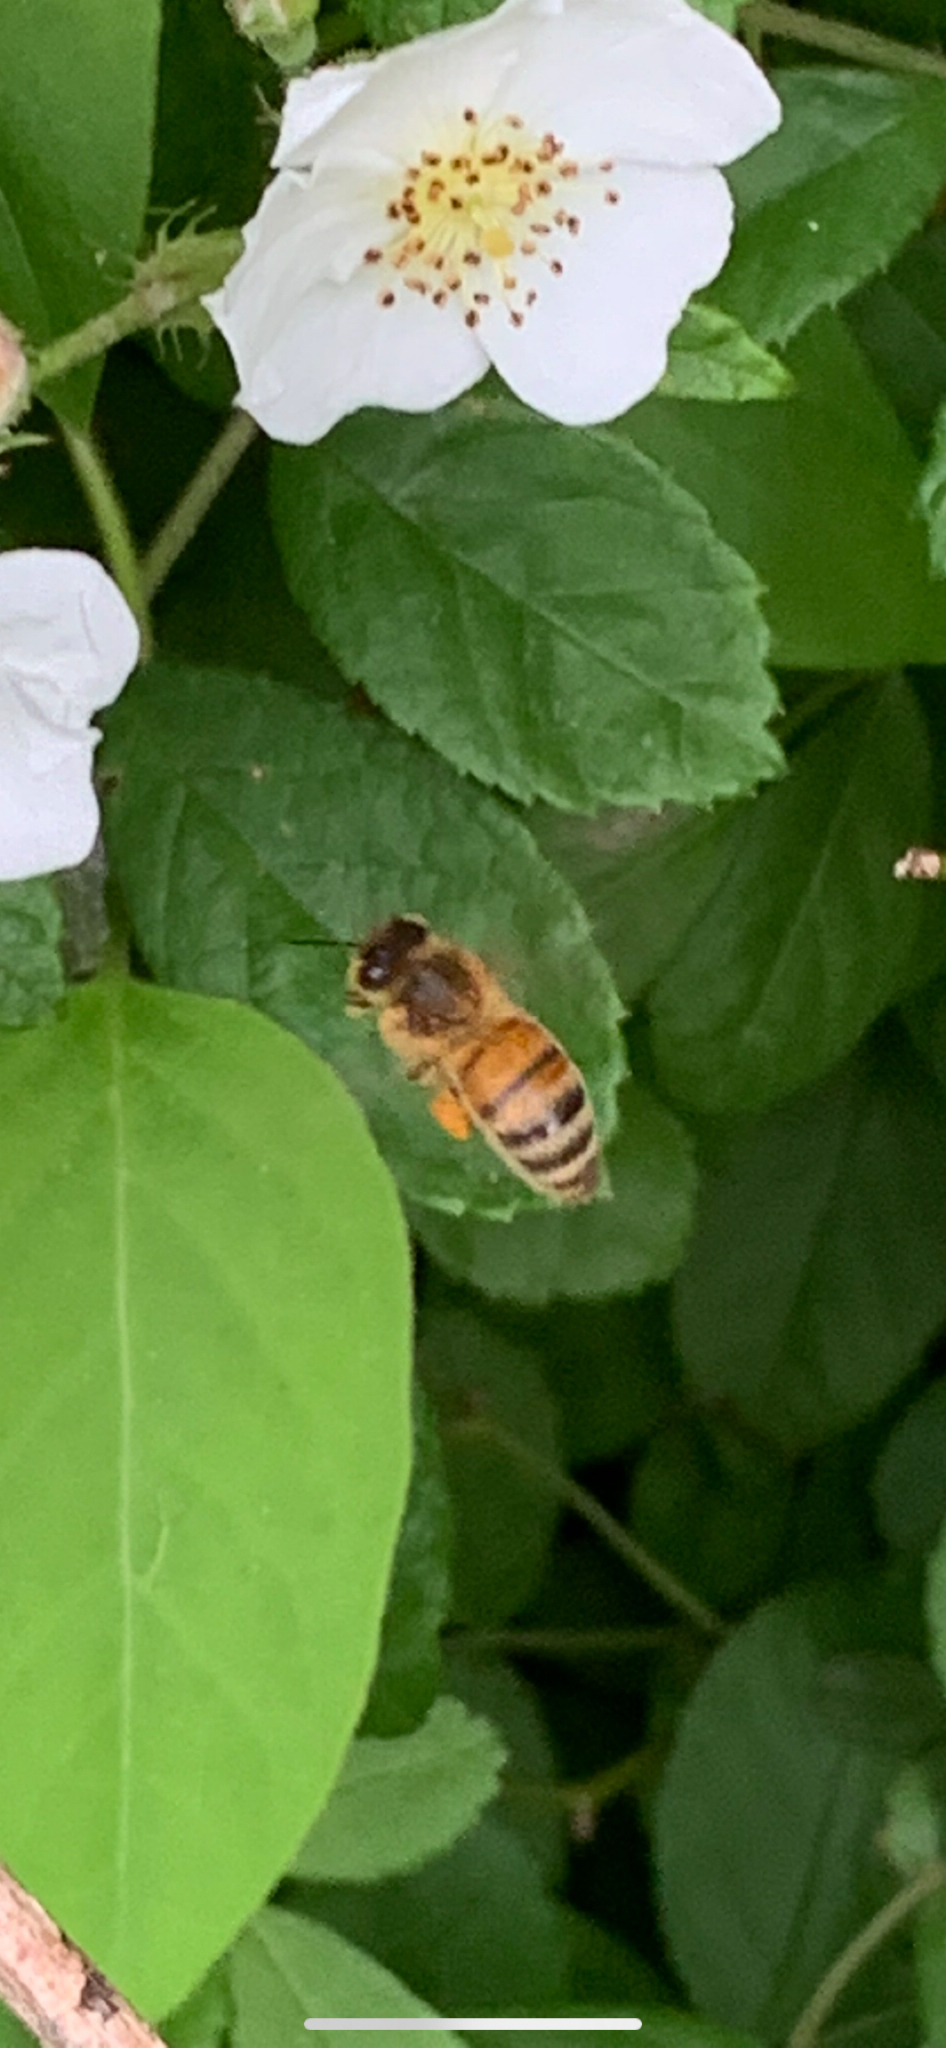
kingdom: Animalia
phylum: Arthropoda
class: Insecta
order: Hymenoptera
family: Apidae
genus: Apis
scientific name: Apis mellifera
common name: Honey bee
